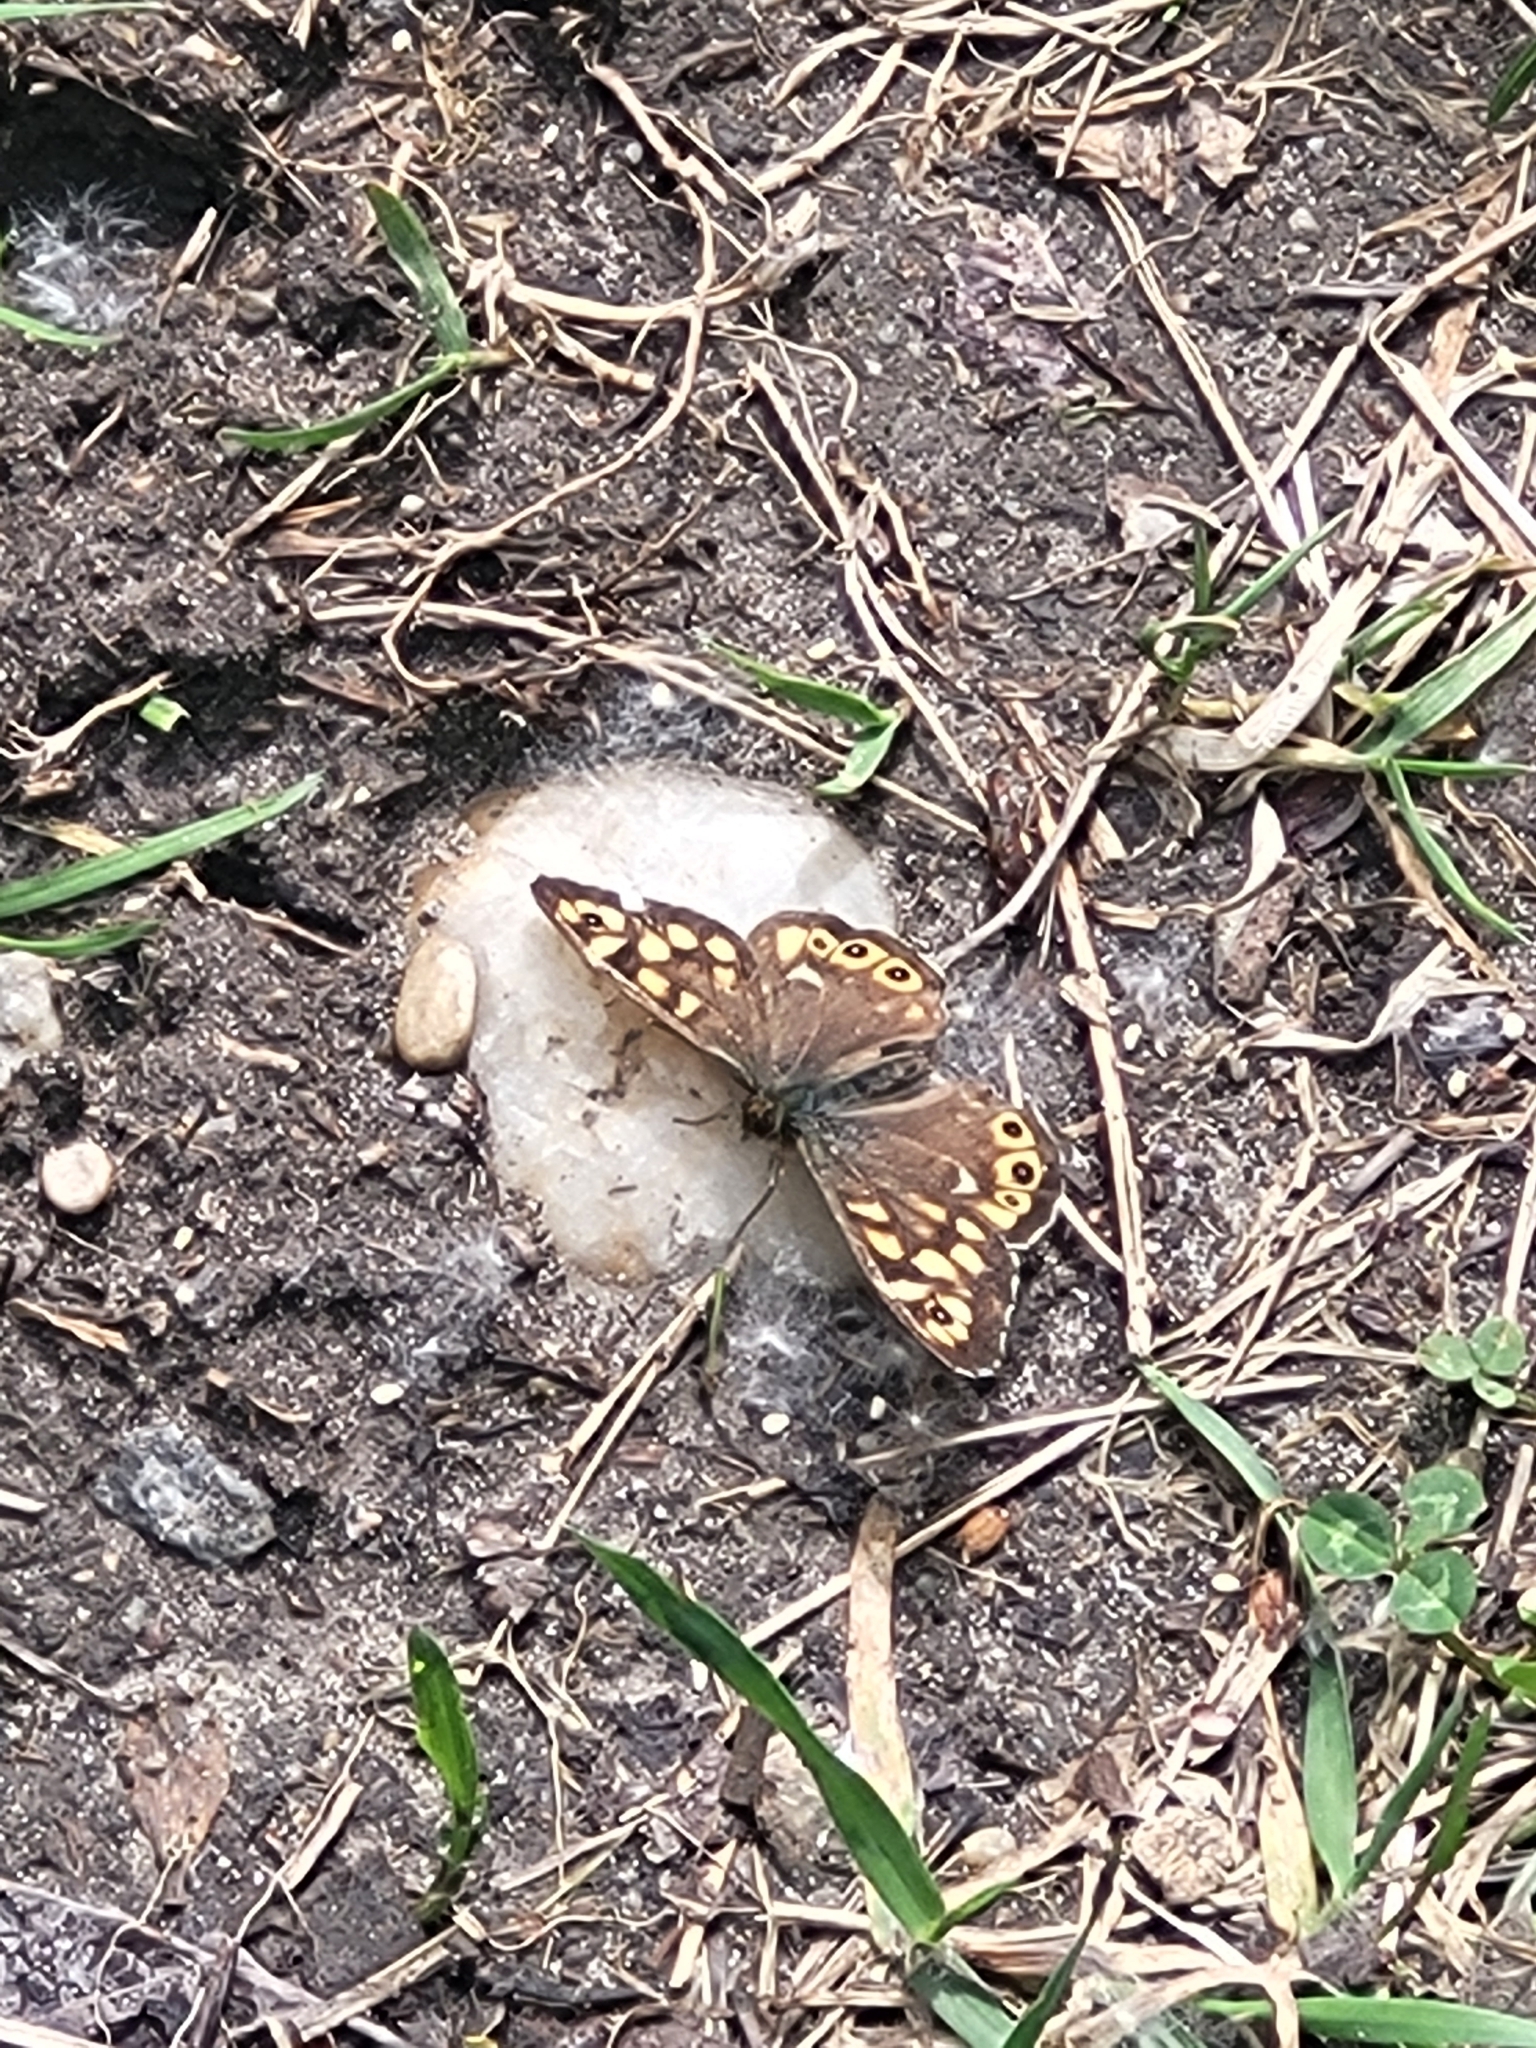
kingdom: Animalia
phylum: Arthropoda
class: Insecta
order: Lepidoptera
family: Nymphalidae
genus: Pararge
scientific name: Pararge aegeria
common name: Speckled wood
